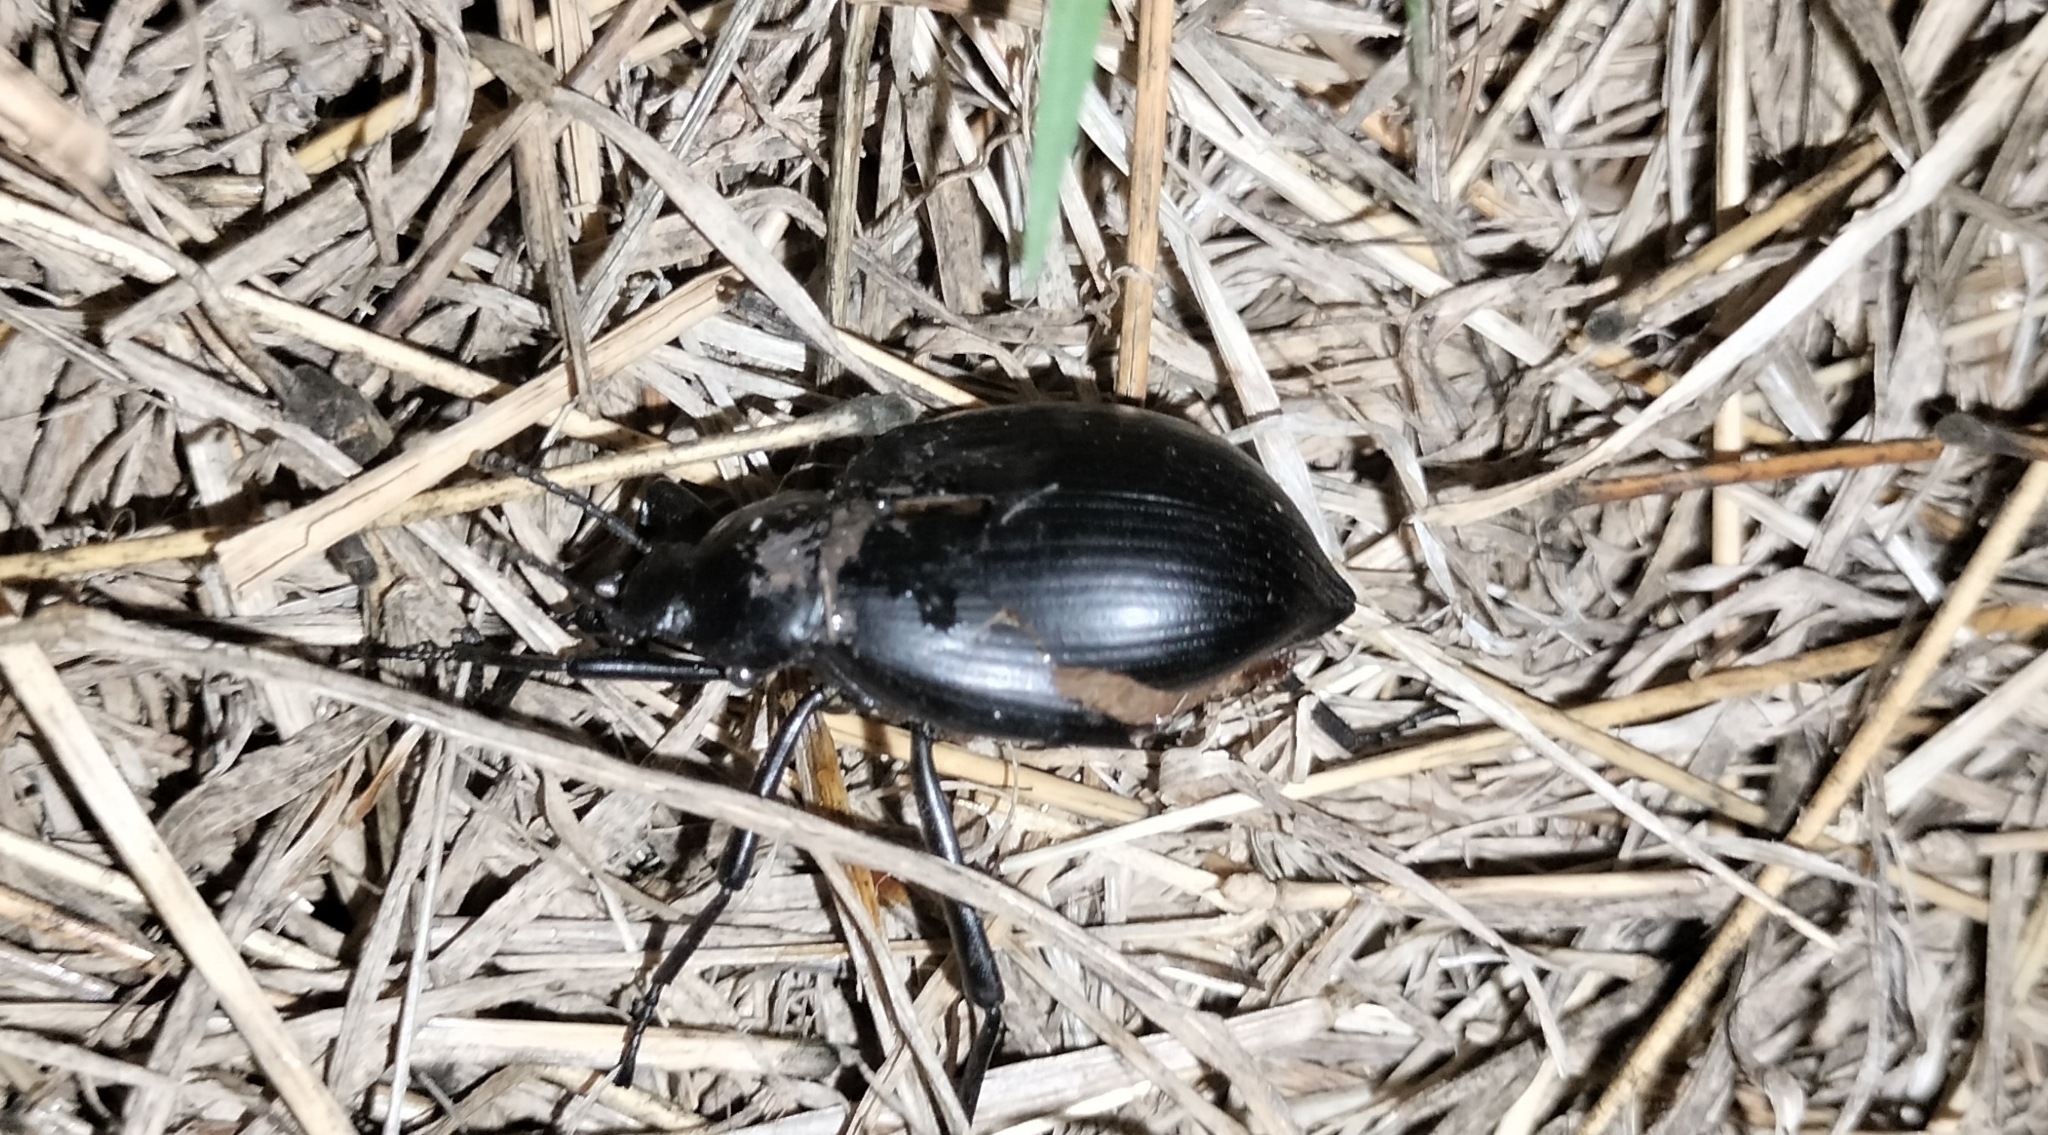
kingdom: Animalia
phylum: Arthropoda
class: Insecta
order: Coleoptera
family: Tenebrionidae
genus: Eleodes
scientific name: Eleodes spinipes
